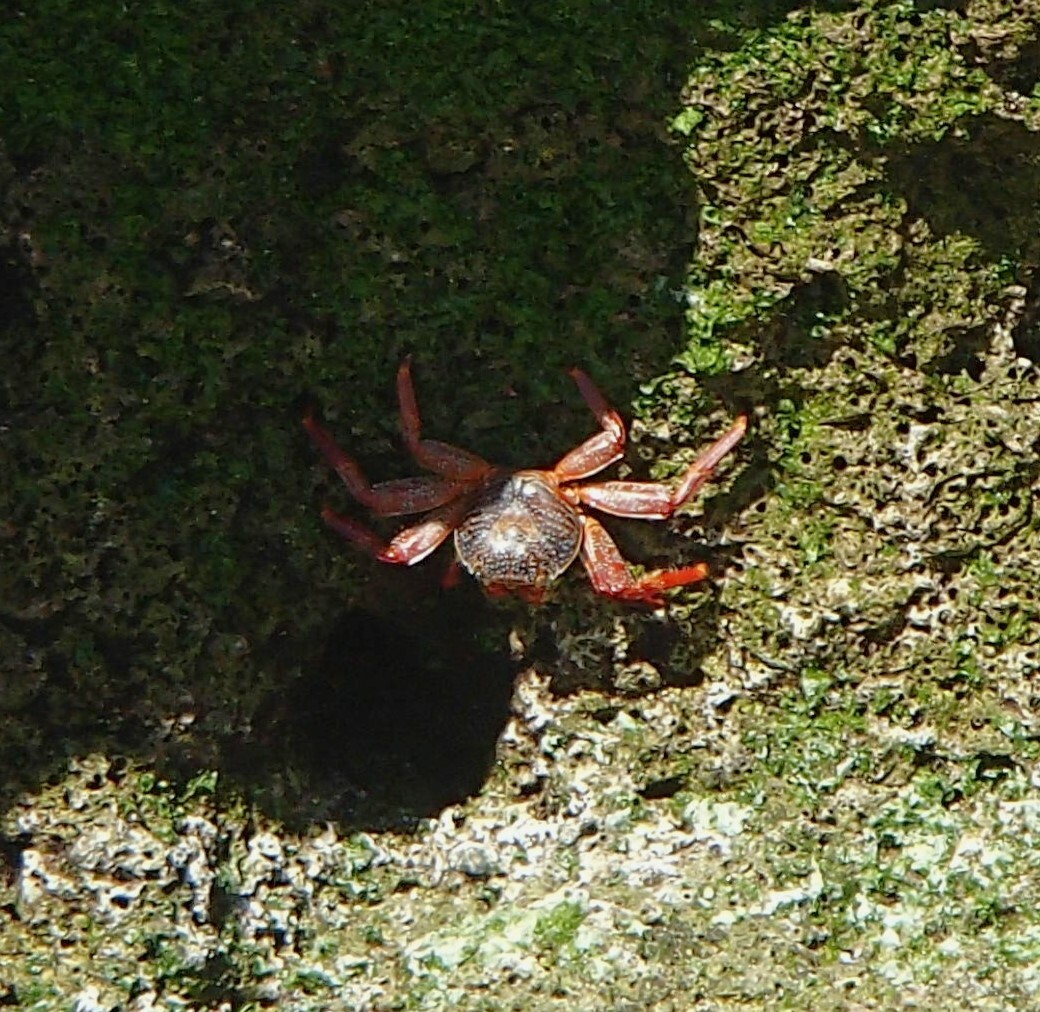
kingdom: Animalia
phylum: Arthropoda
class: Malacostraca
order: Decapoda
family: Grapsidae
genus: Grapsus
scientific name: Grapsus grapsus
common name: Sally lightfoot
